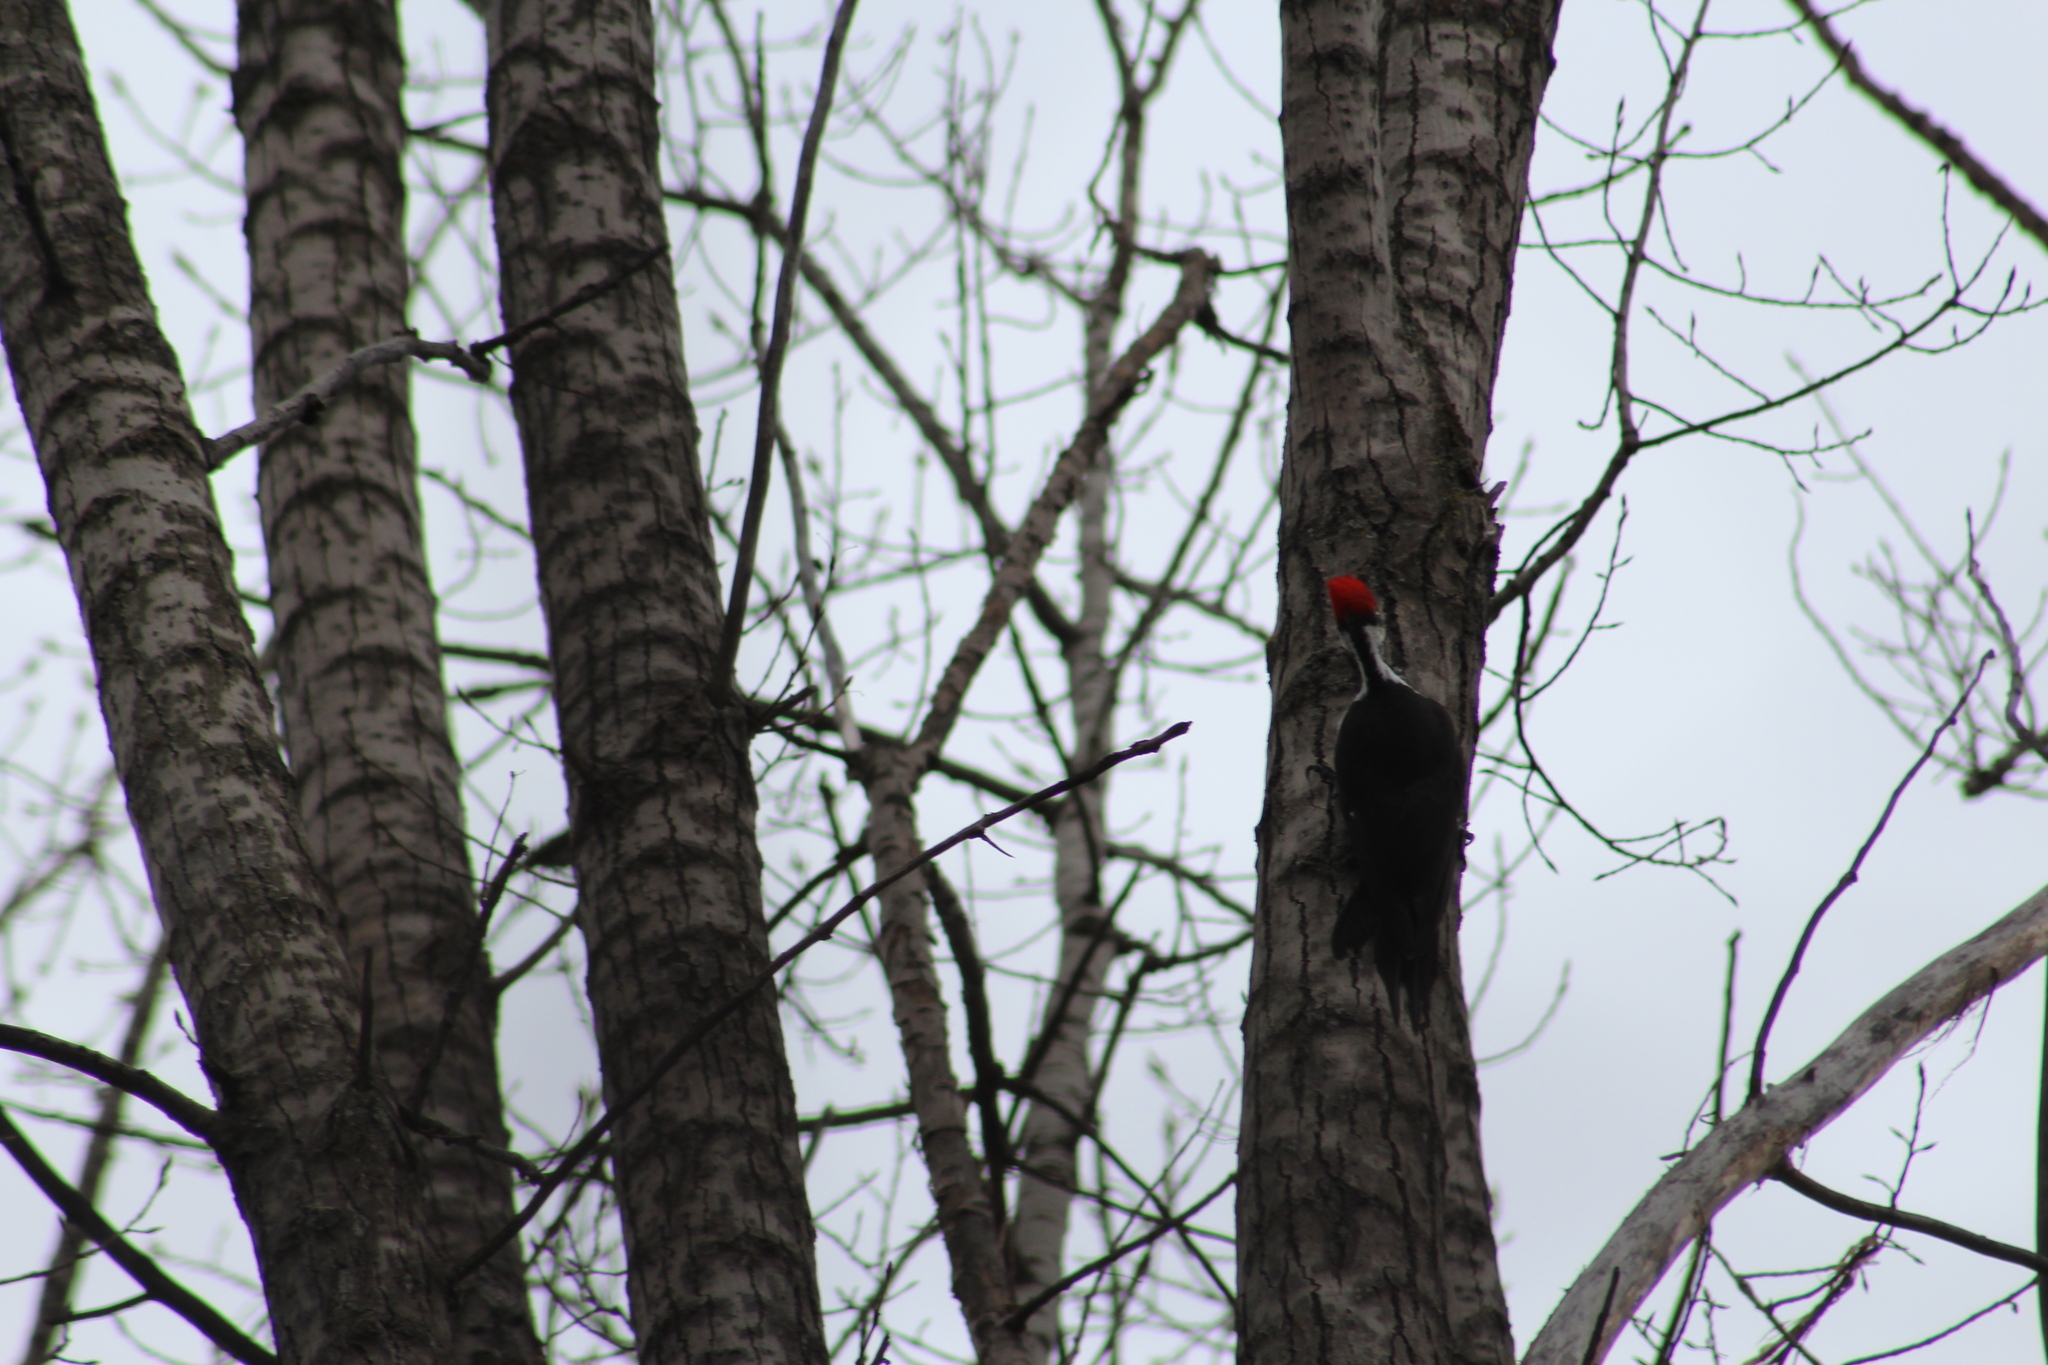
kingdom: Animalia
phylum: Chordata
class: Aves
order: Piciformes
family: Picidae
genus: Dryocopus
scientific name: Dryocopus pileatus
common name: Pileated woodpecker
